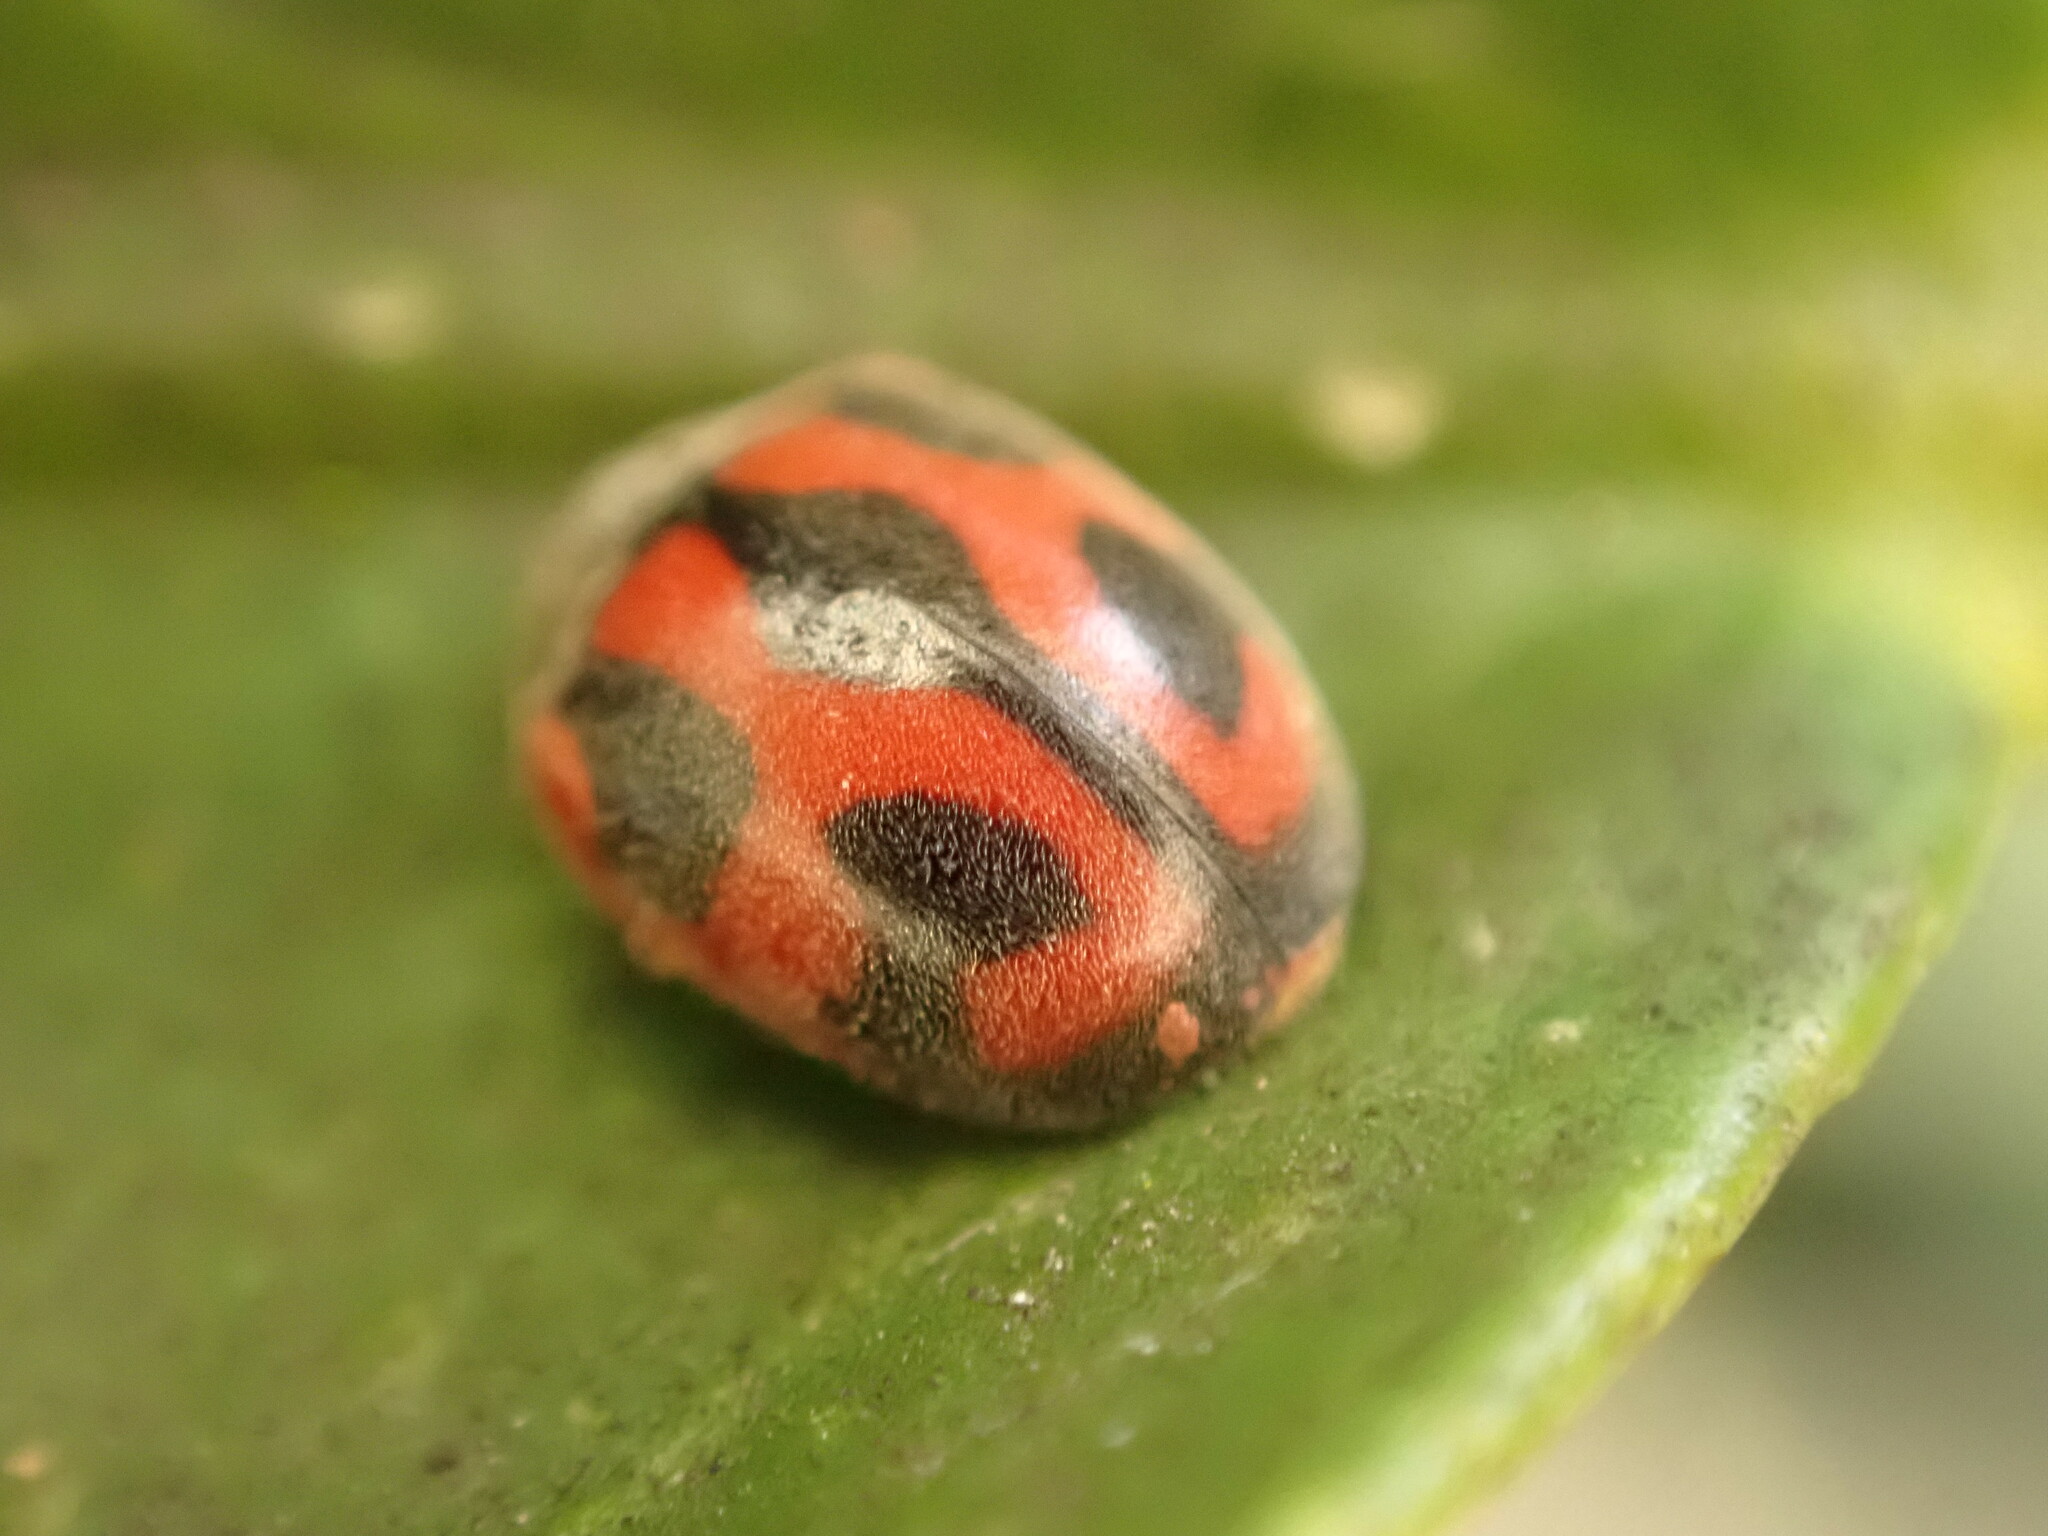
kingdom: Animalia
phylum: Arthropoda
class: Insecta
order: Coleoptera
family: Coccinellidae
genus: Novius
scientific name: Novius cardinalis
